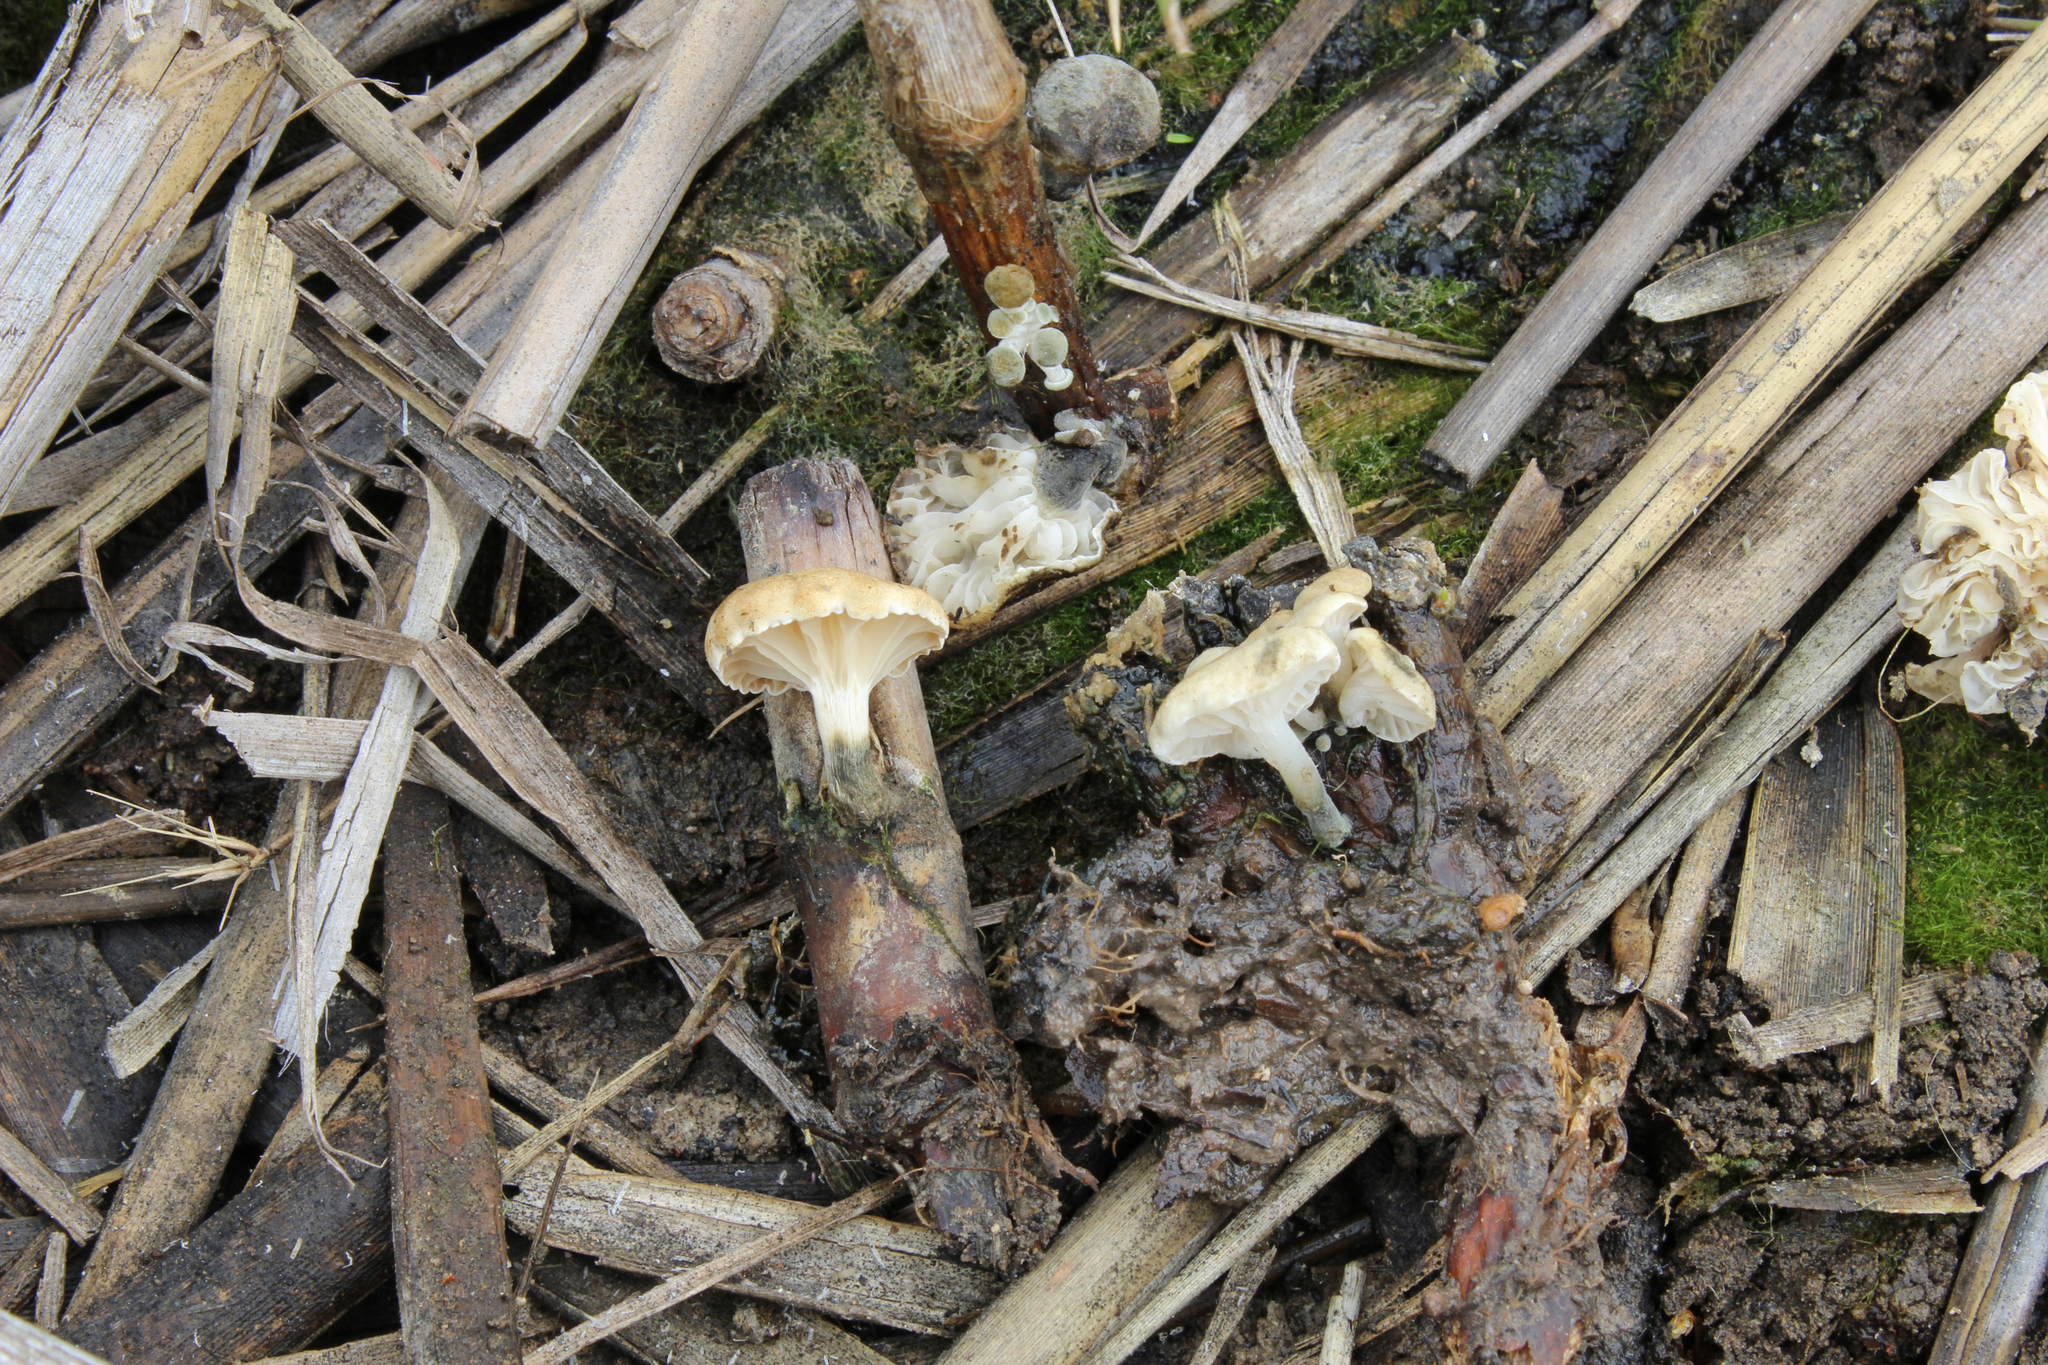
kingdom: Fungi
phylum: Basidiomycota
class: Agaricomycetes
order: Agaricales
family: Omphalotaceae
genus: Marasmiellus
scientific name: Marasmiellus trabutii
